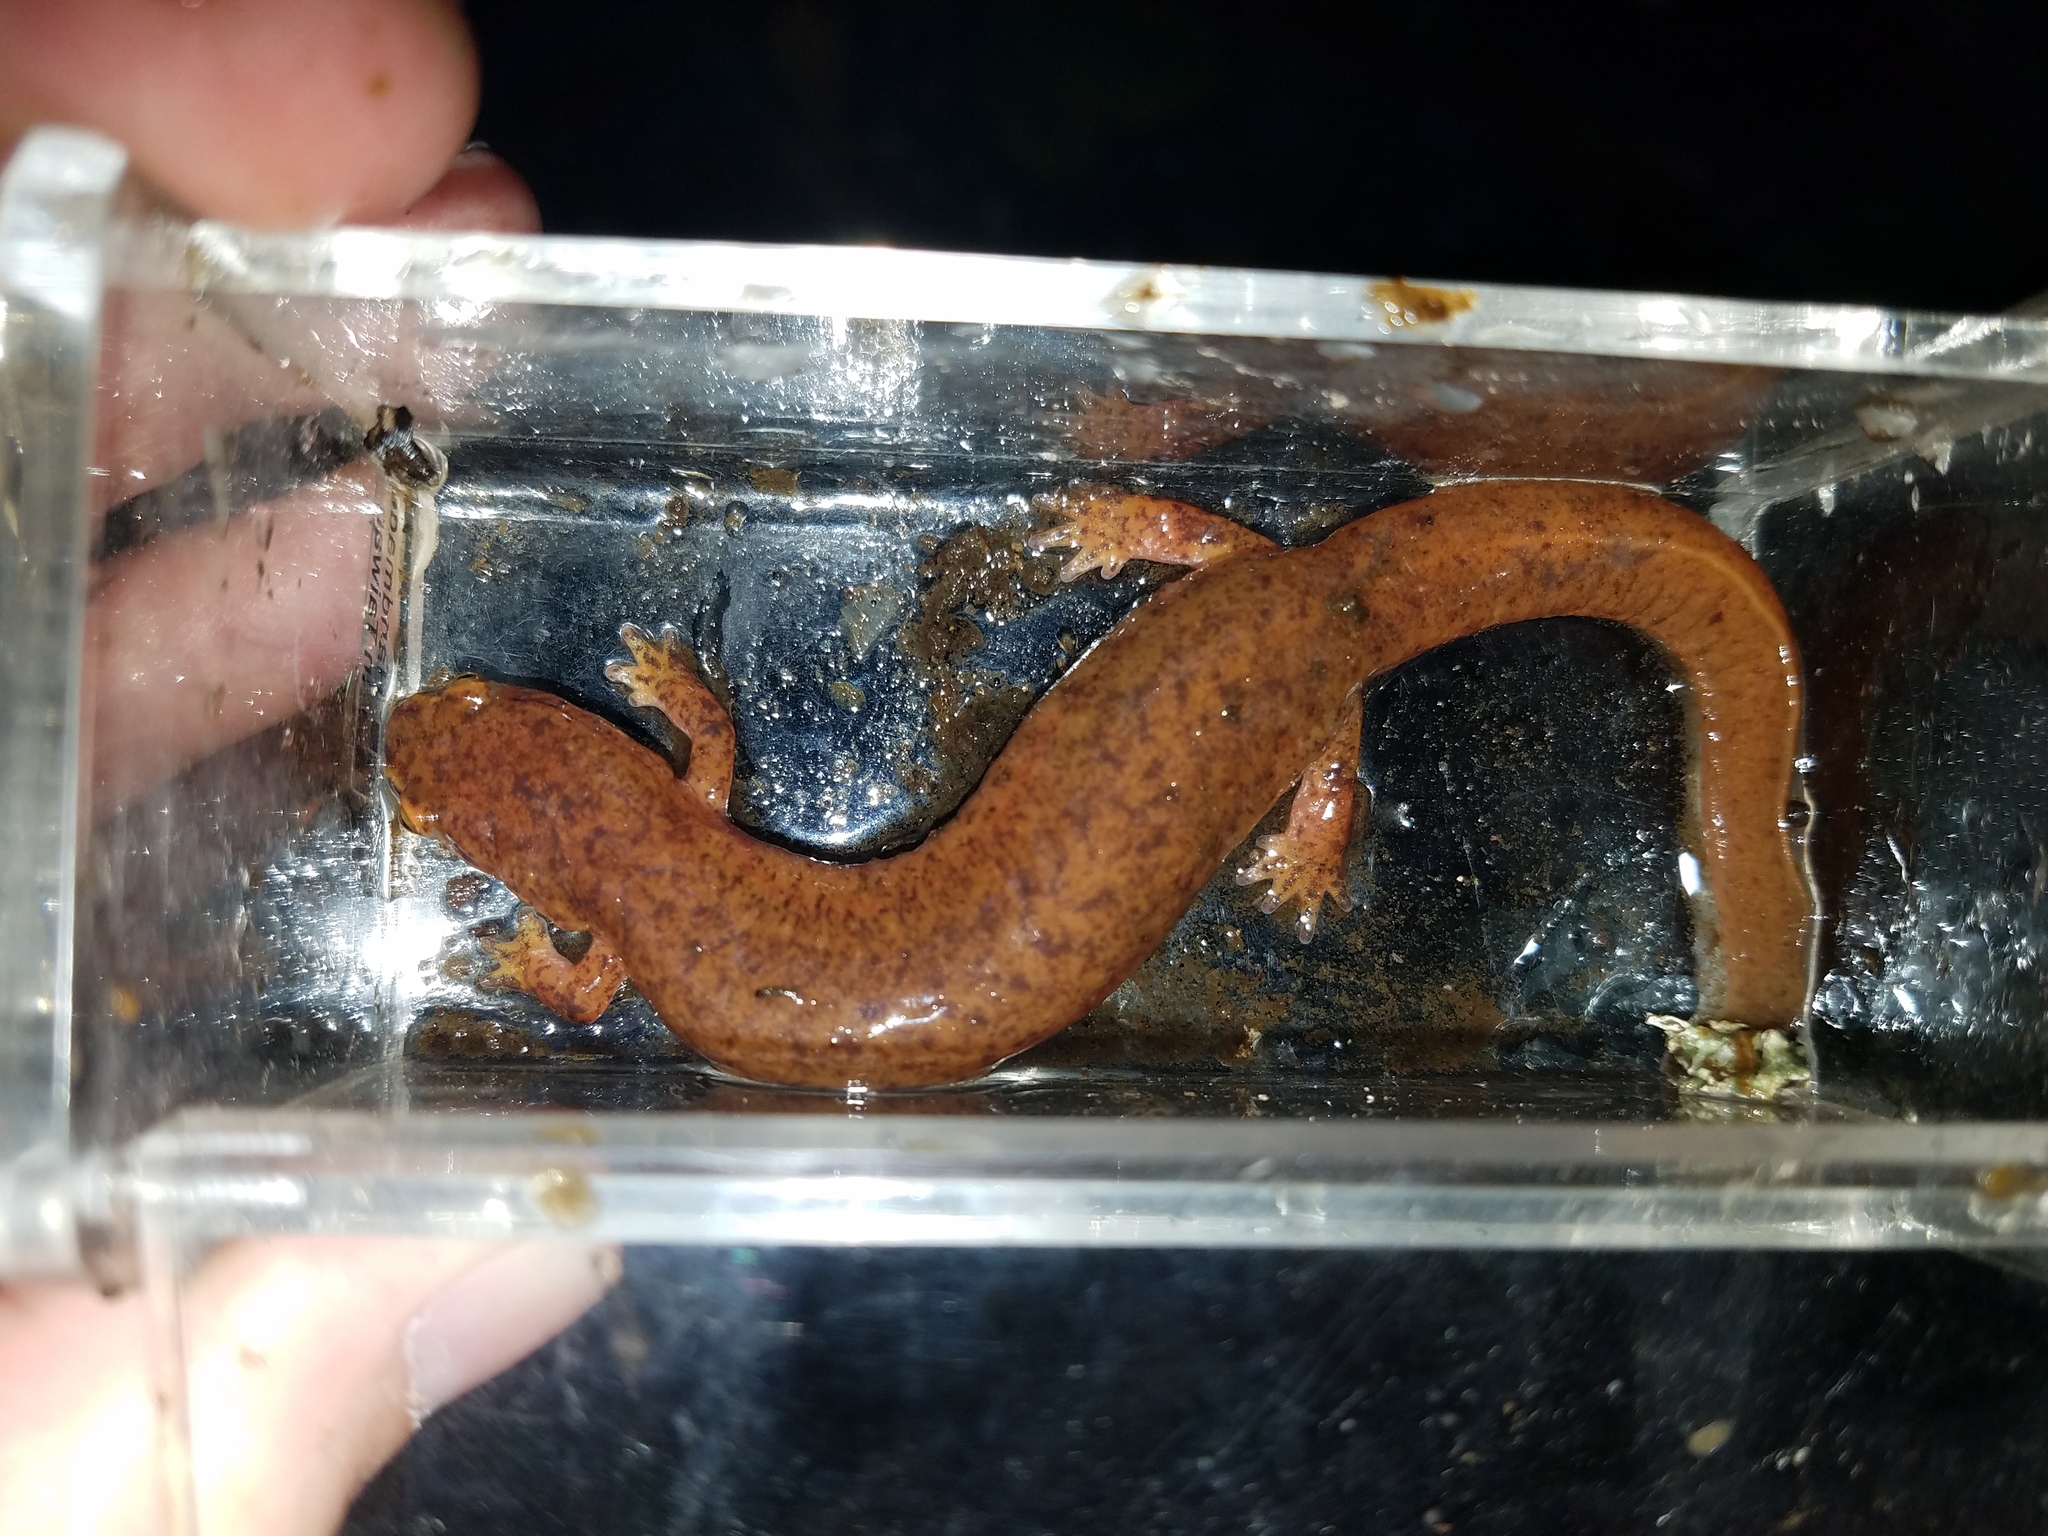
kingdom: Animalia
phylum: Chordata
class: Amphibia
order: Caudata
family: Plethodontidae
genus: Gyrinophilus
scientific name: Gyrinophilus porphyriticus
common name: Spring salamander
